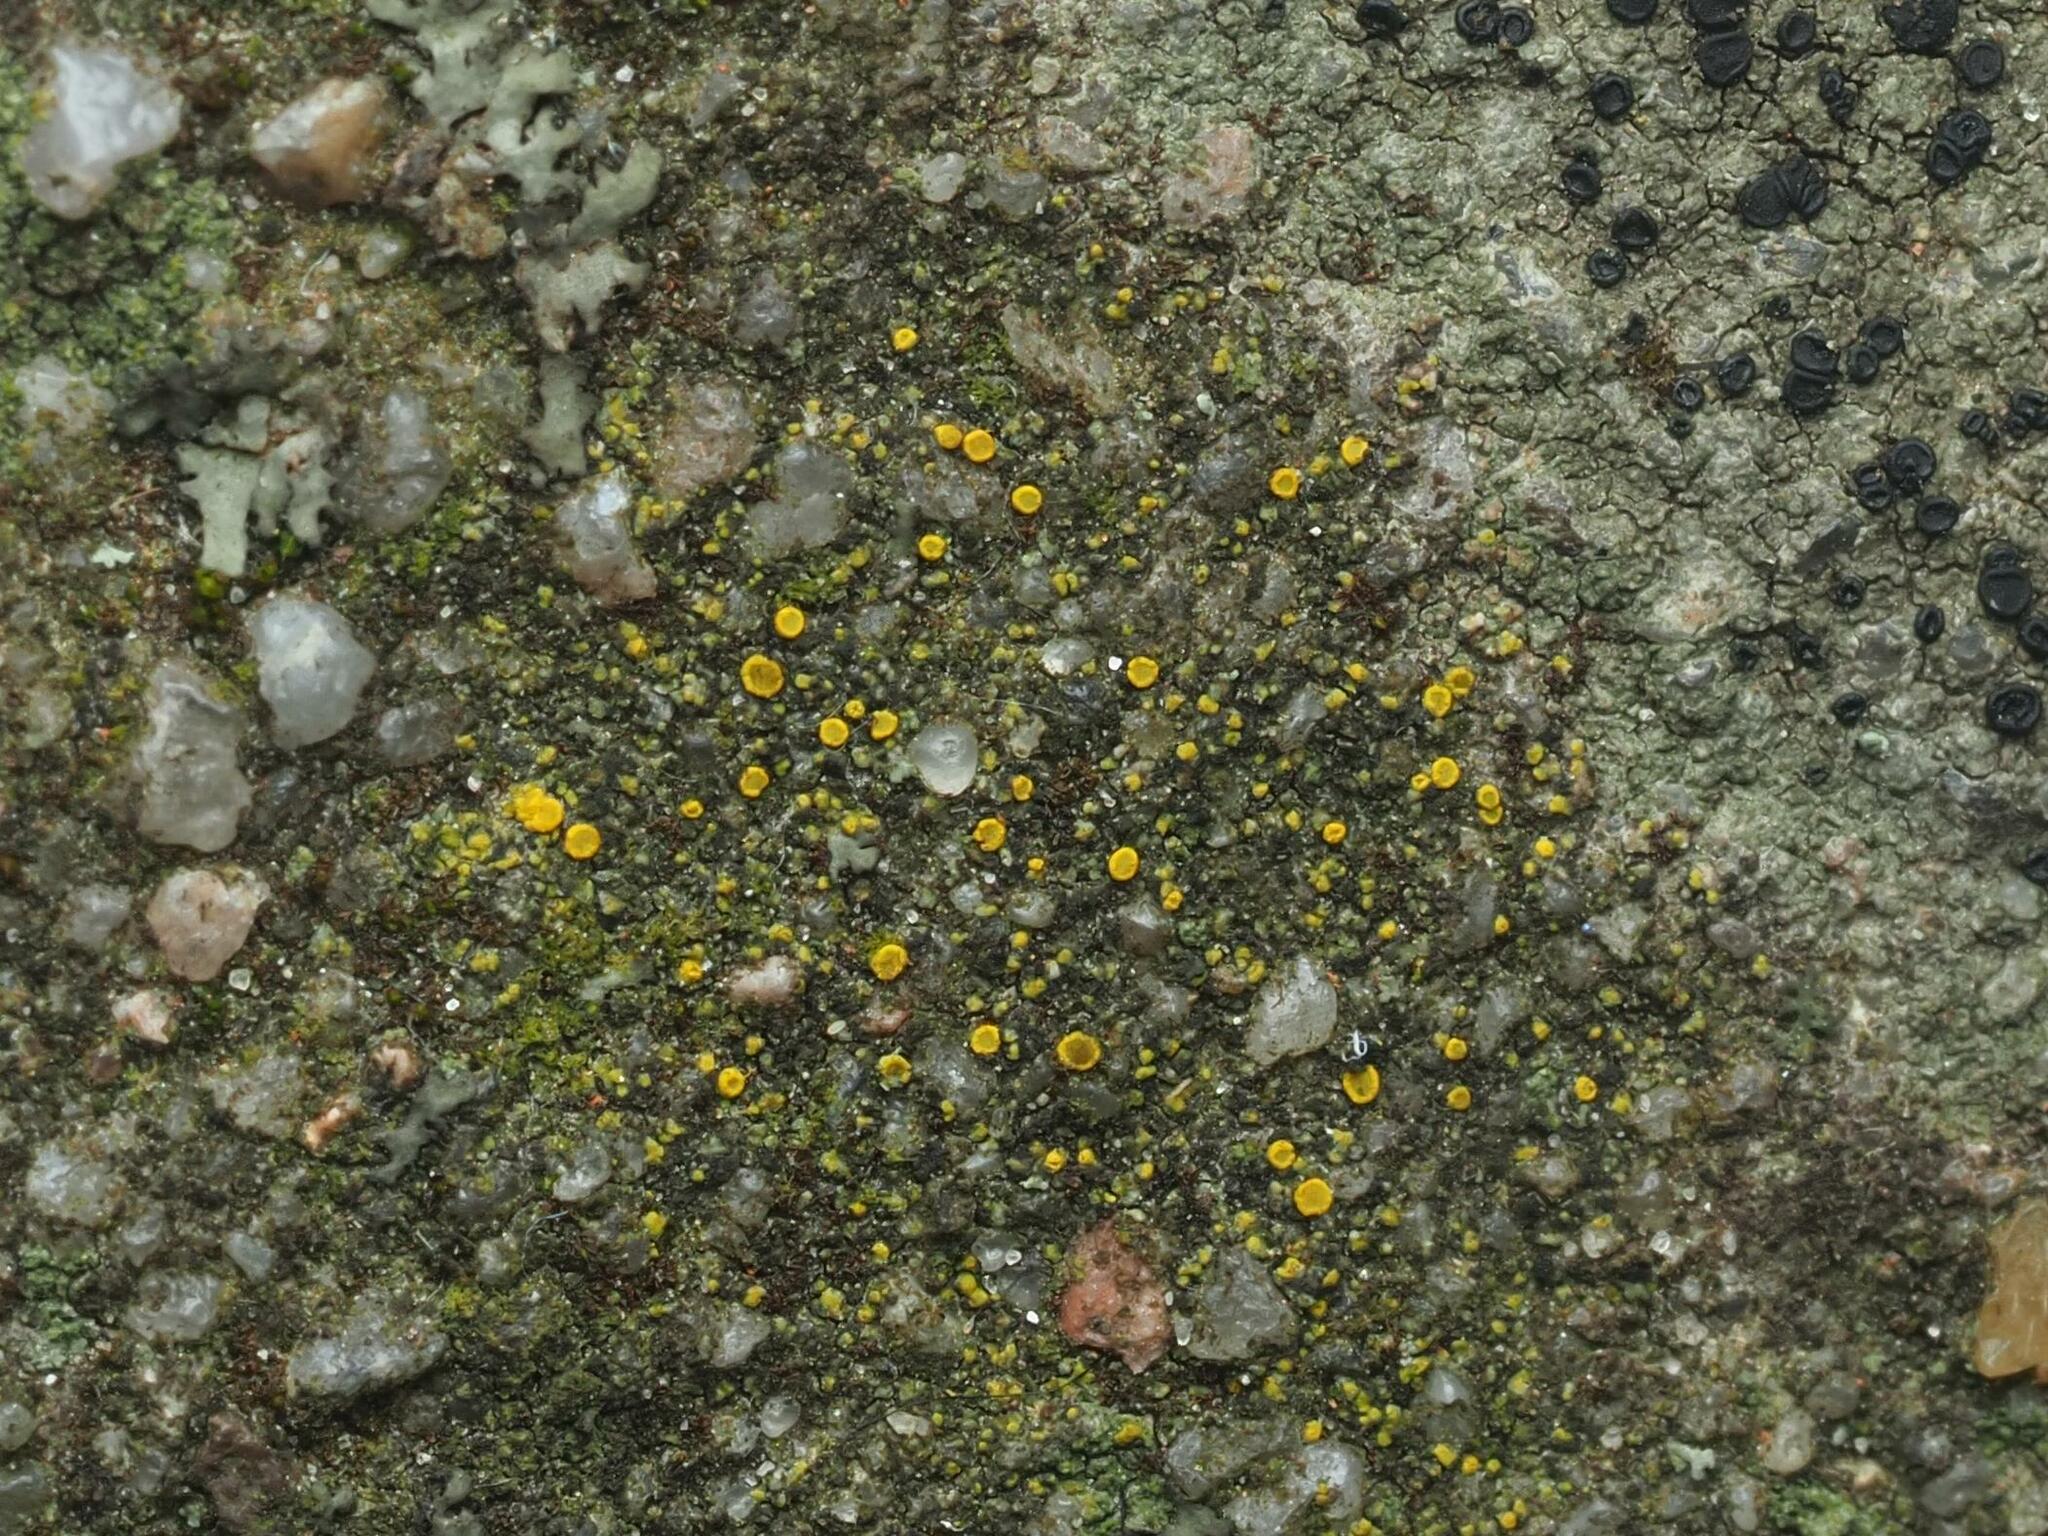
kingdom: Fungi
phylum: Ascomycota
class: Candelariomycetes
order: Candelariales
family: Candelariaceae
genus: Candelariella
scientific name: Candelariella aurella
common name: Hidden goldspeck lichen
